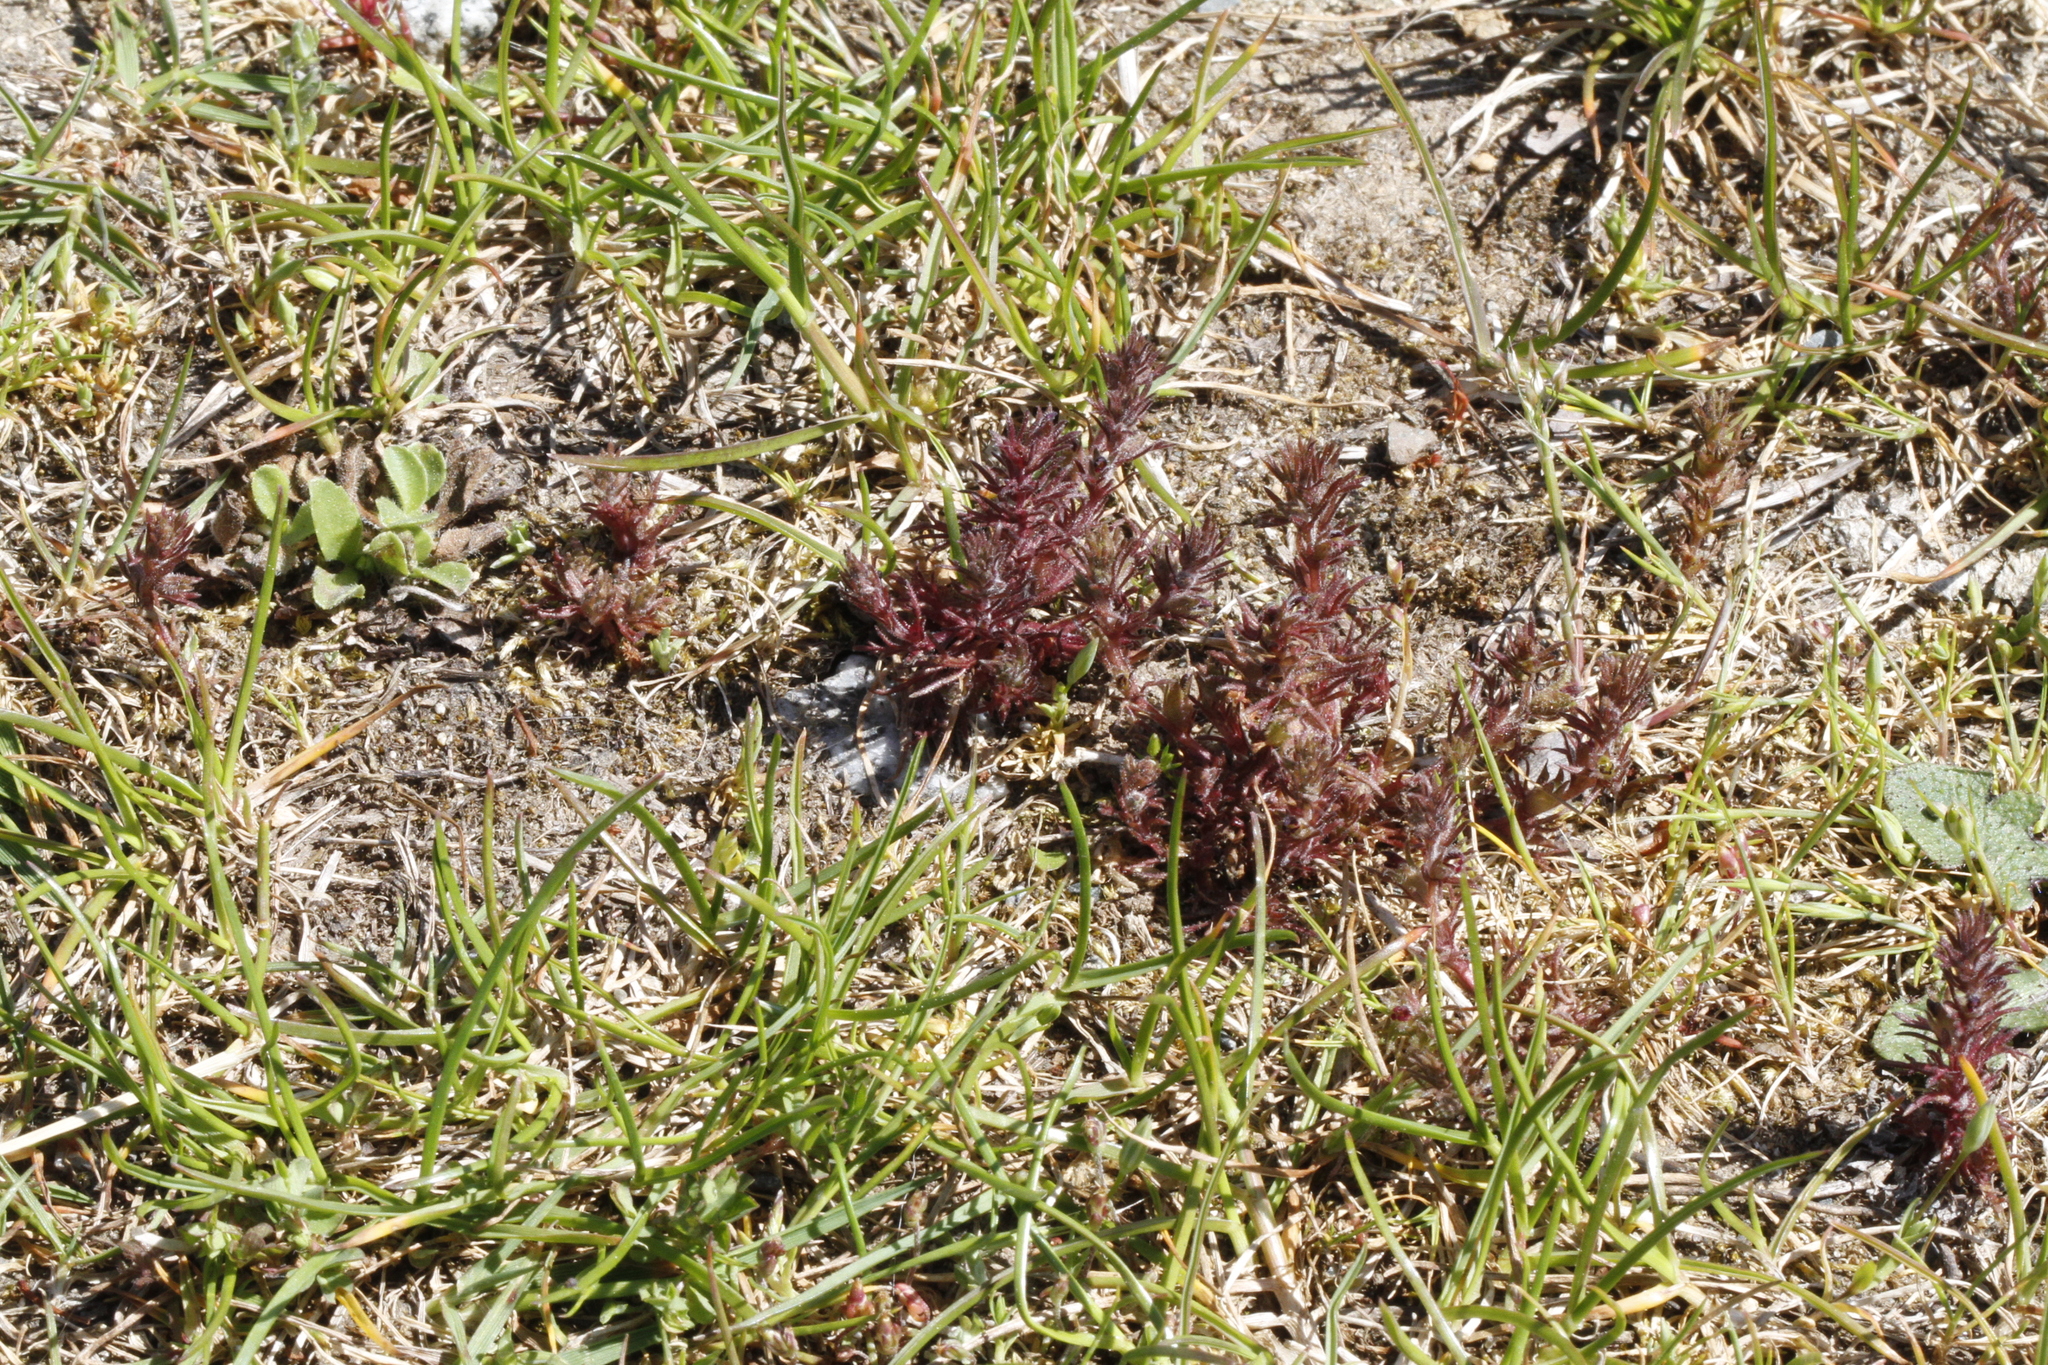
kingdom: Plantae
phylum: Tracheophyta
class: Magnoliopsida
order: Lamiales
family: Orobanchaceae
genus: Triphysaria
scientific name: Triphysaria pusilla
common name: Dwarf false owl-clover
